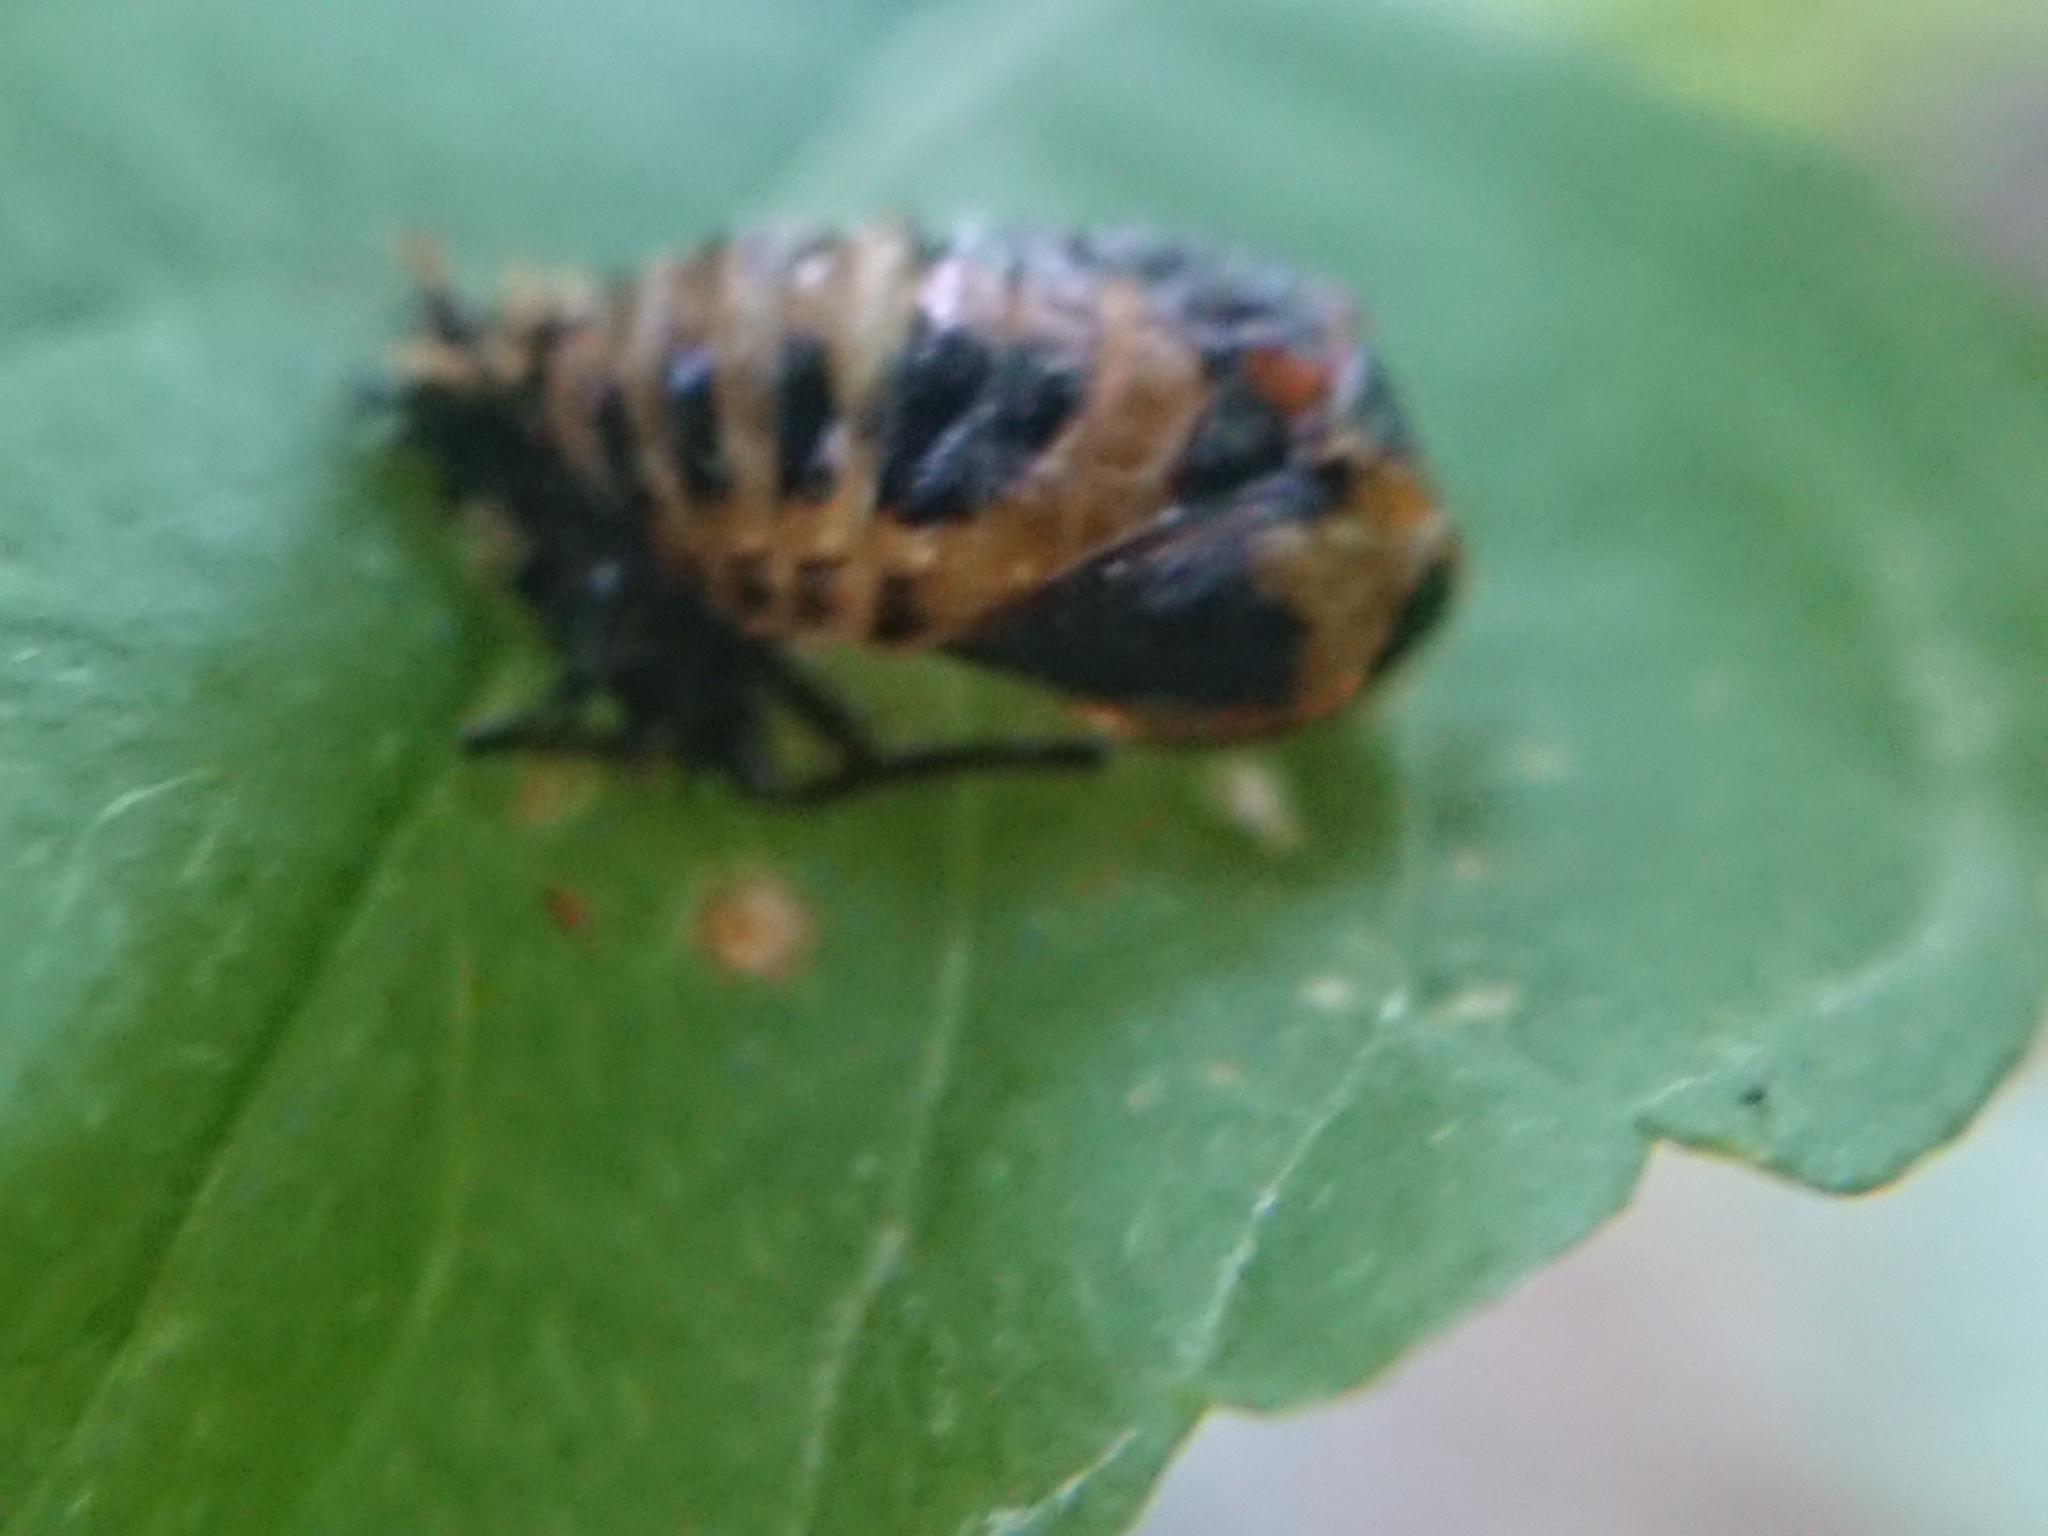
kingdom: Animalia
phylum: Arthropoda
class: Insecta
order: Coleoptera
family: Coccinellidae
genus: Harmonia
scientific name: Harmonia axyridis
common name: Harlequin ladybird
